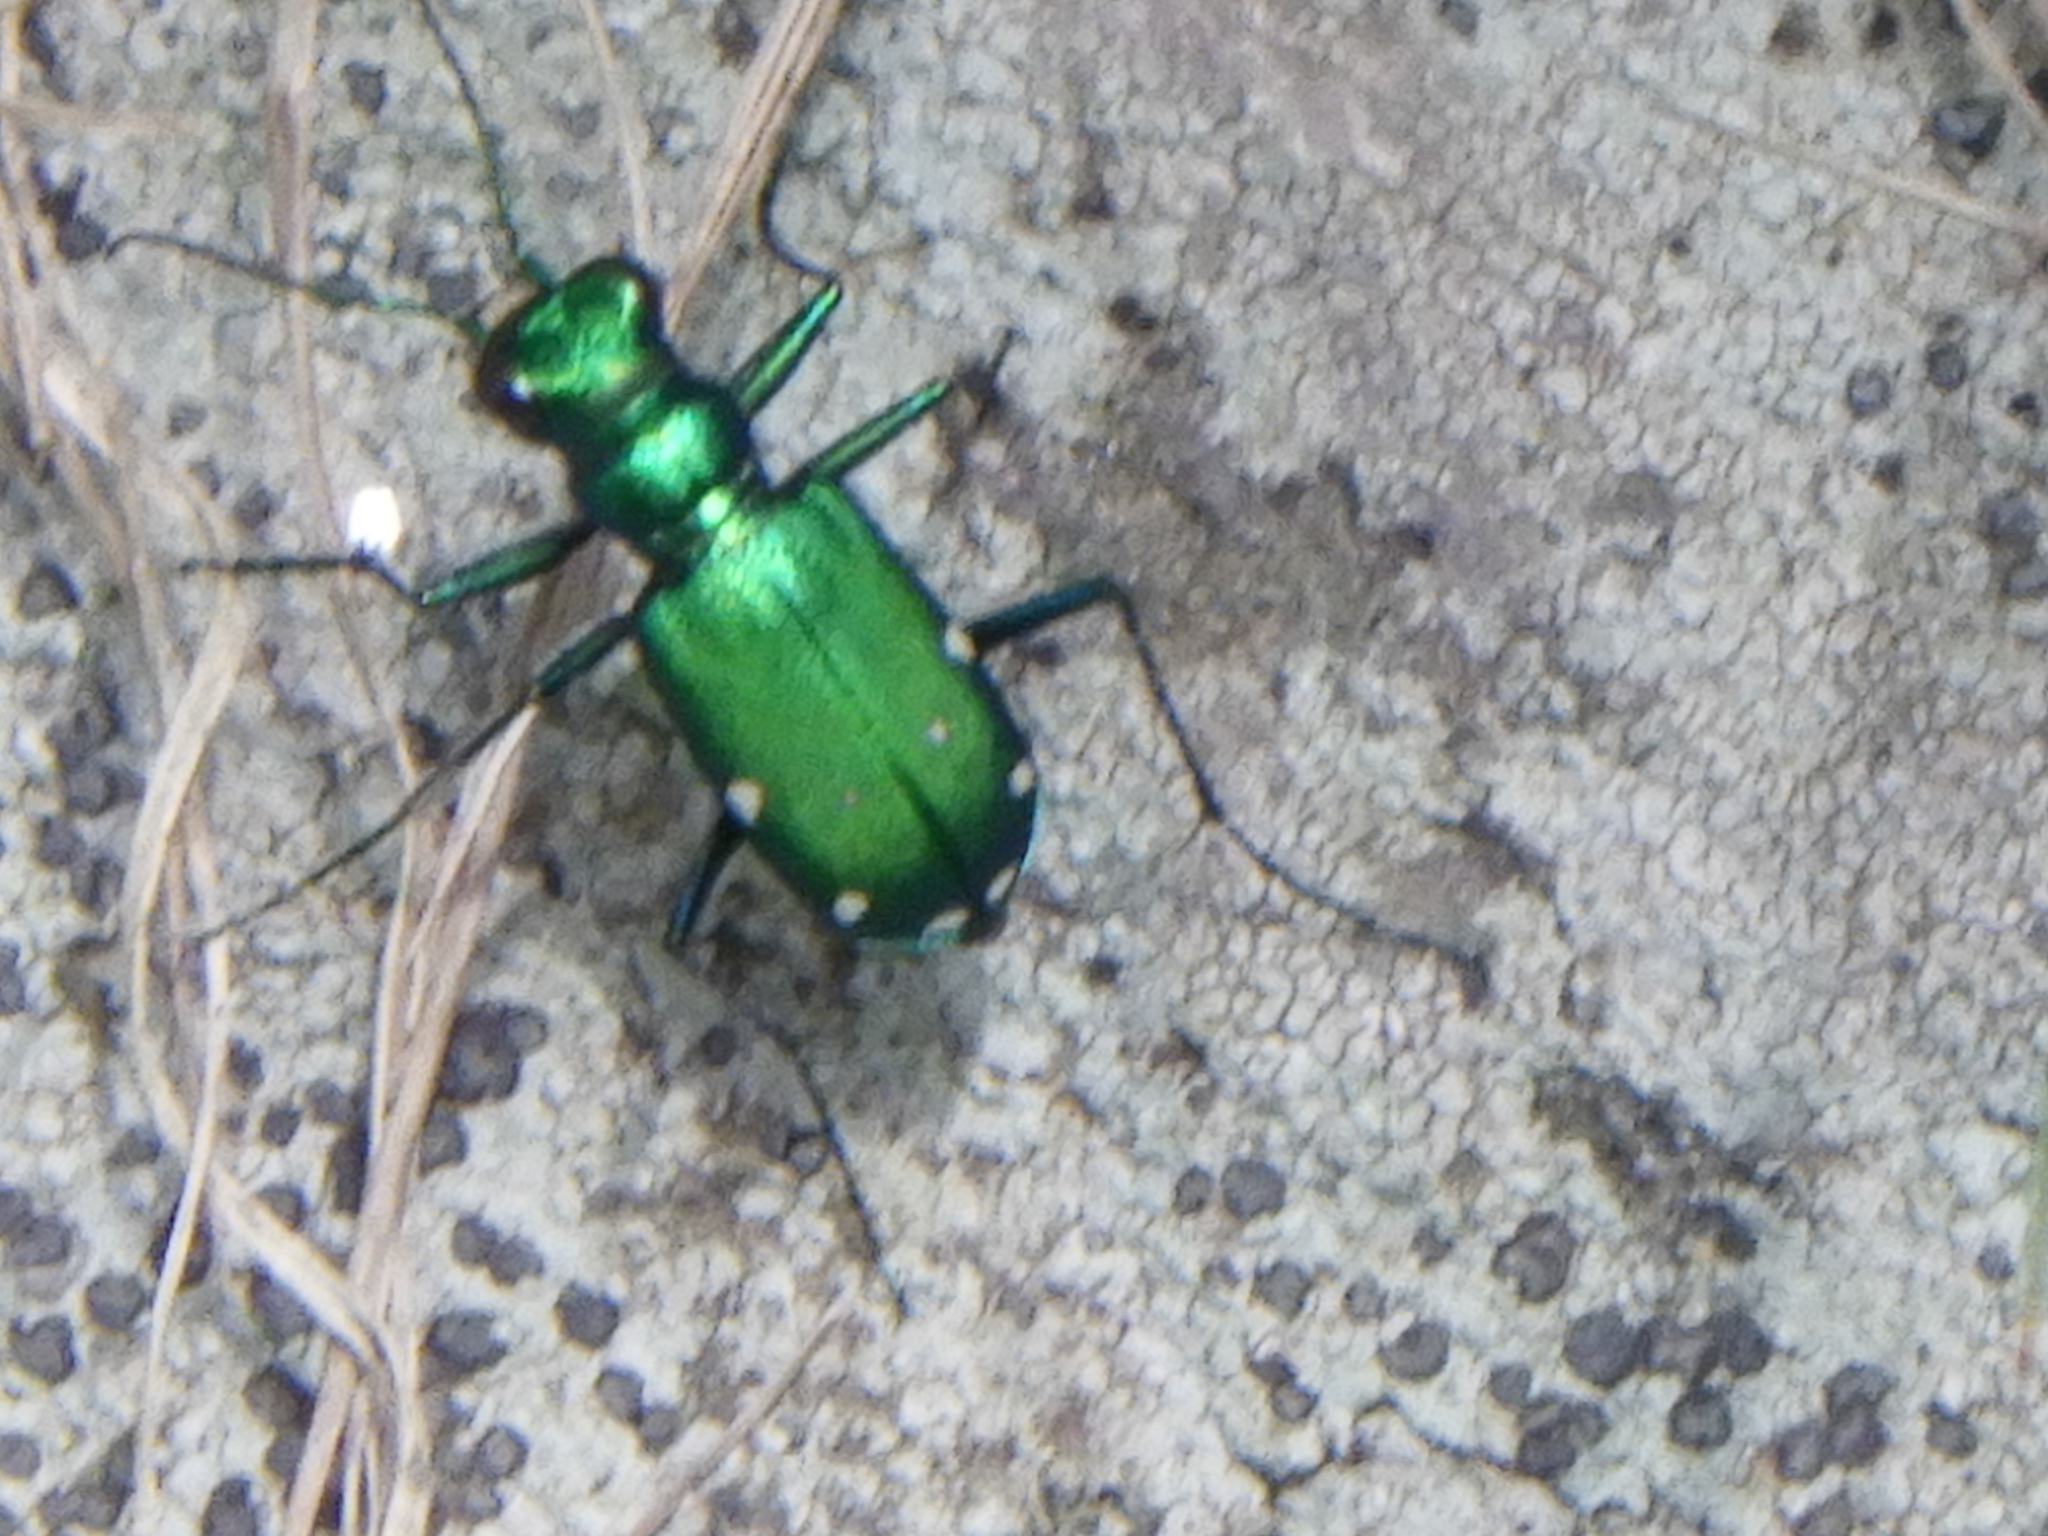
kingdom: Animalia
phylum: Arthropoda
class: Insecta
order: Coleoptera
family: Carabidae
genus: Cicindela
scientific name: Cicindela sexguttata
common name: Six-spotted tiger beetle
